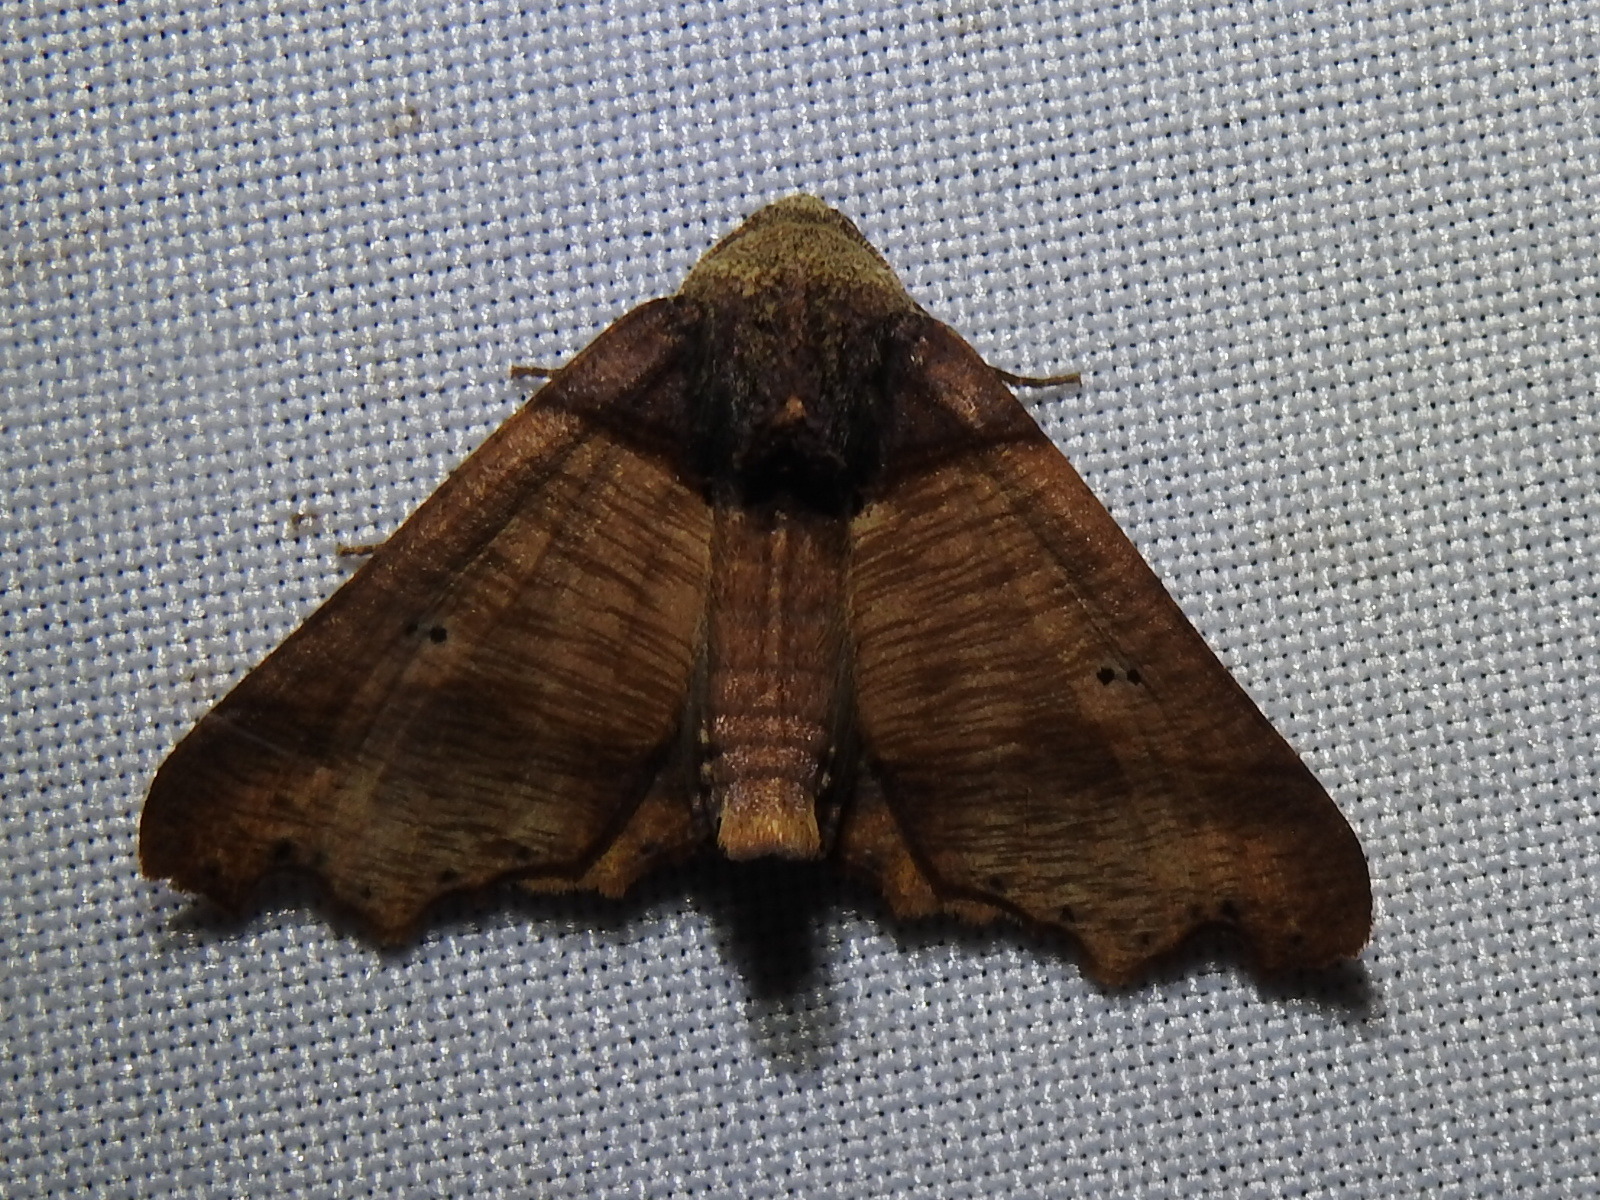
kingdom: Animalia
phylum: Arthropoda
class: Insecta
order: Lepidoptera
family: Geometridae
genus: Pero
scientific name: Pero polygonaria
